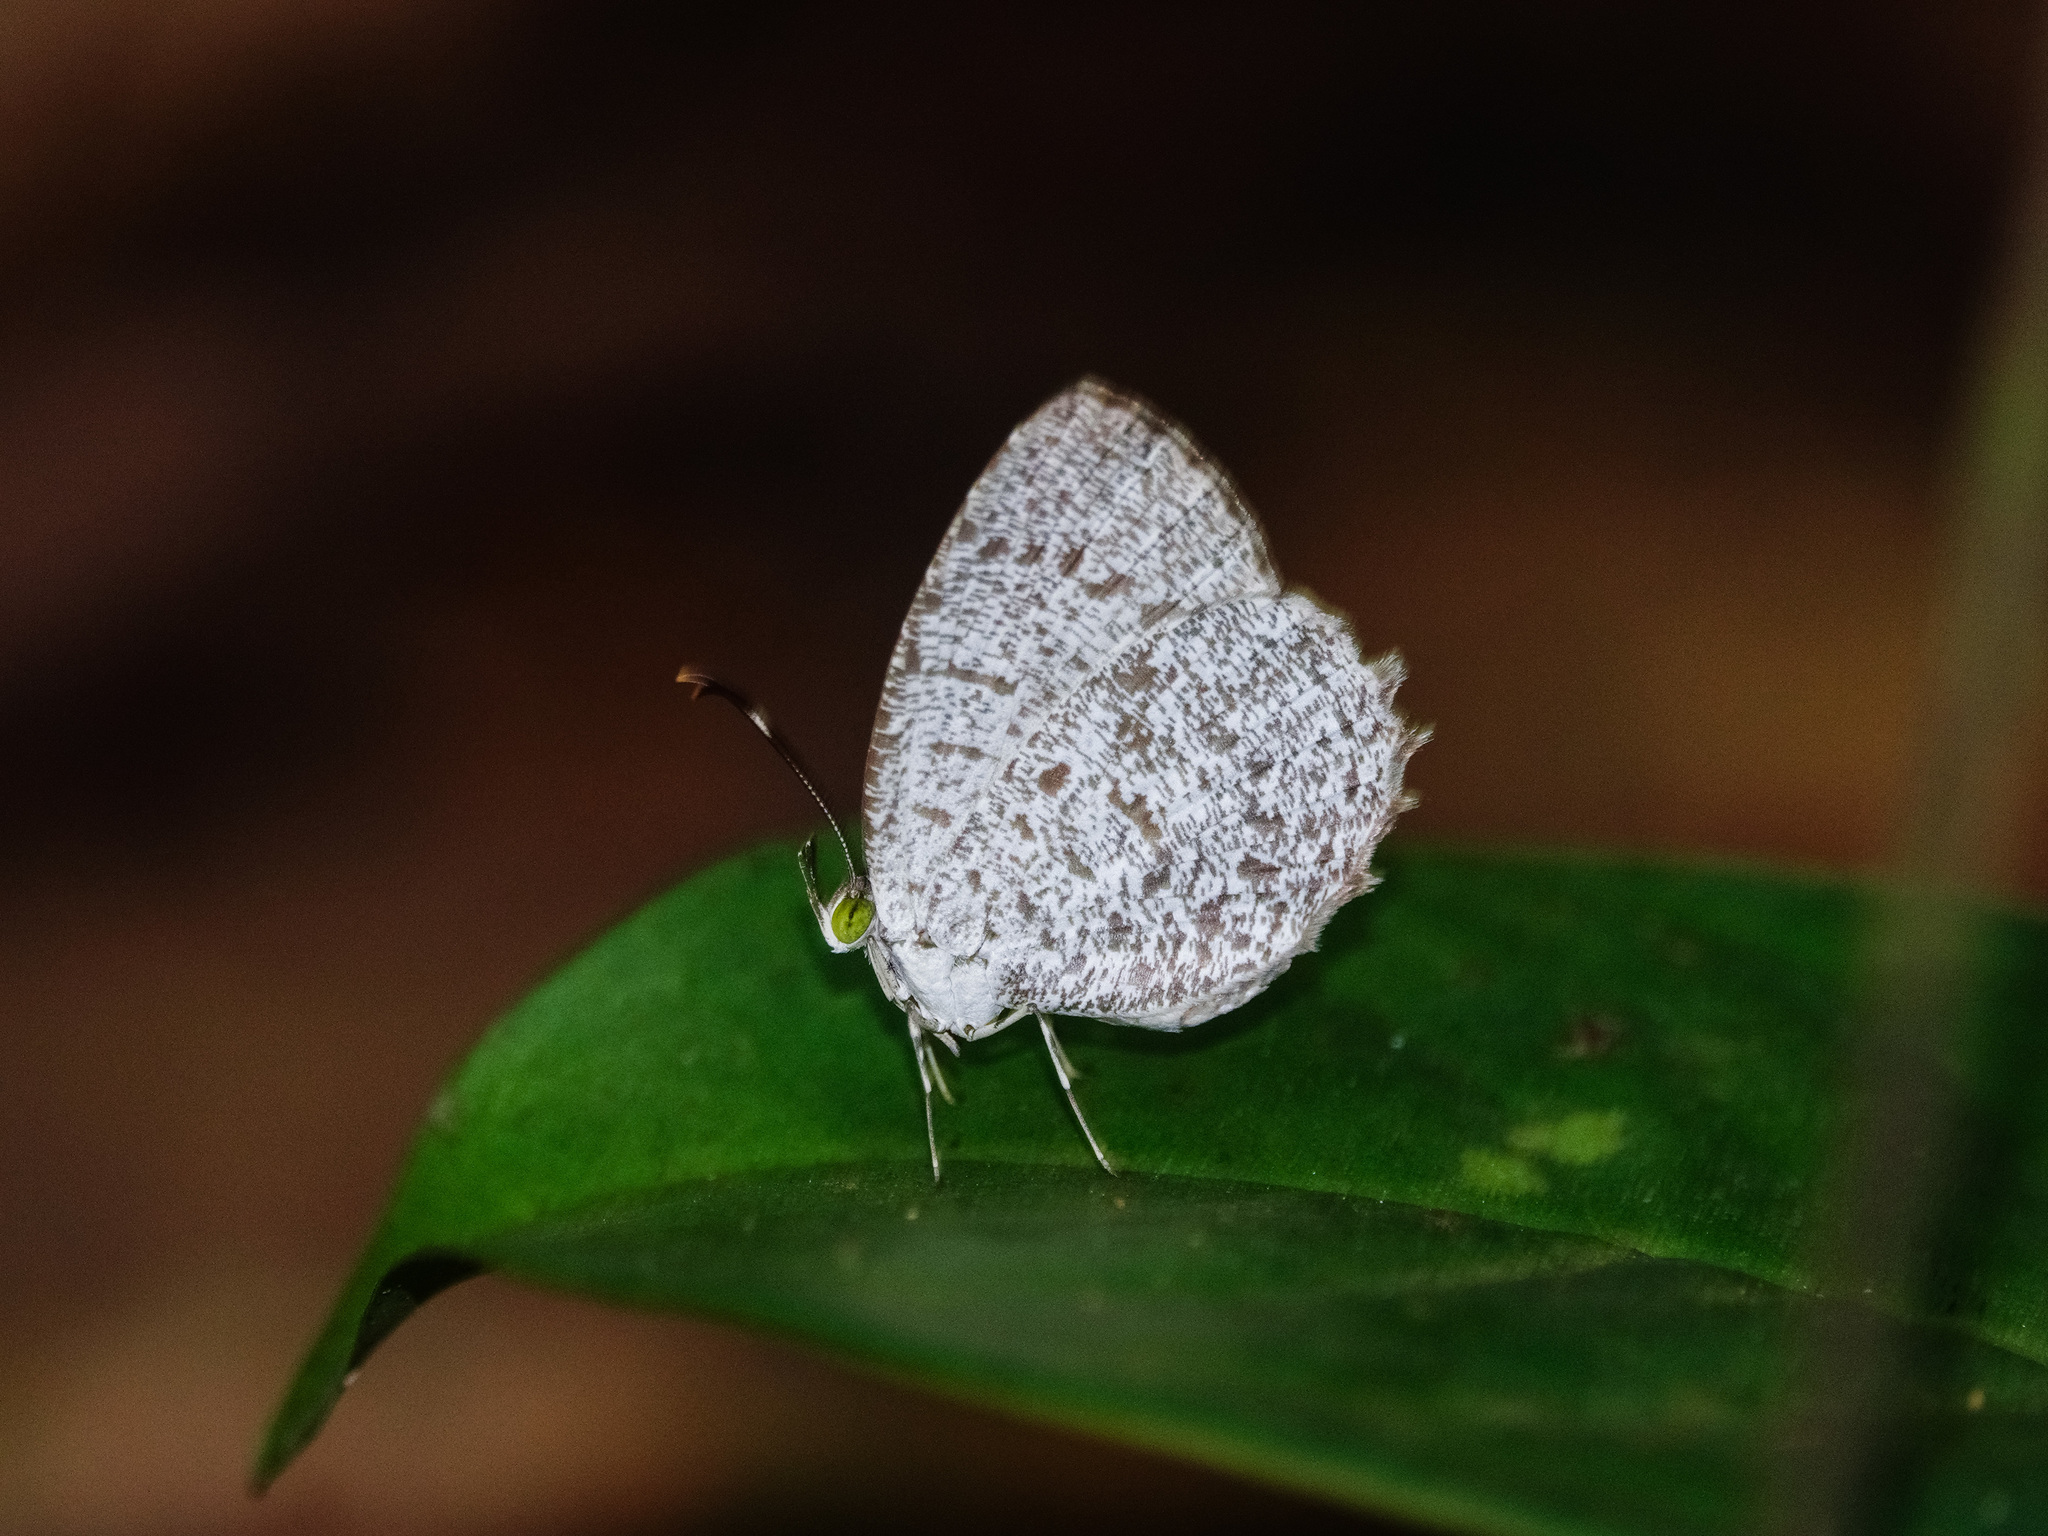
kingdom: Animalia
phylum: Arthropoda
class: Insecta
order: Lepidoptera
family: Lycaenidae
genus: Allotinus
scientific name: Allotinus unicolor
